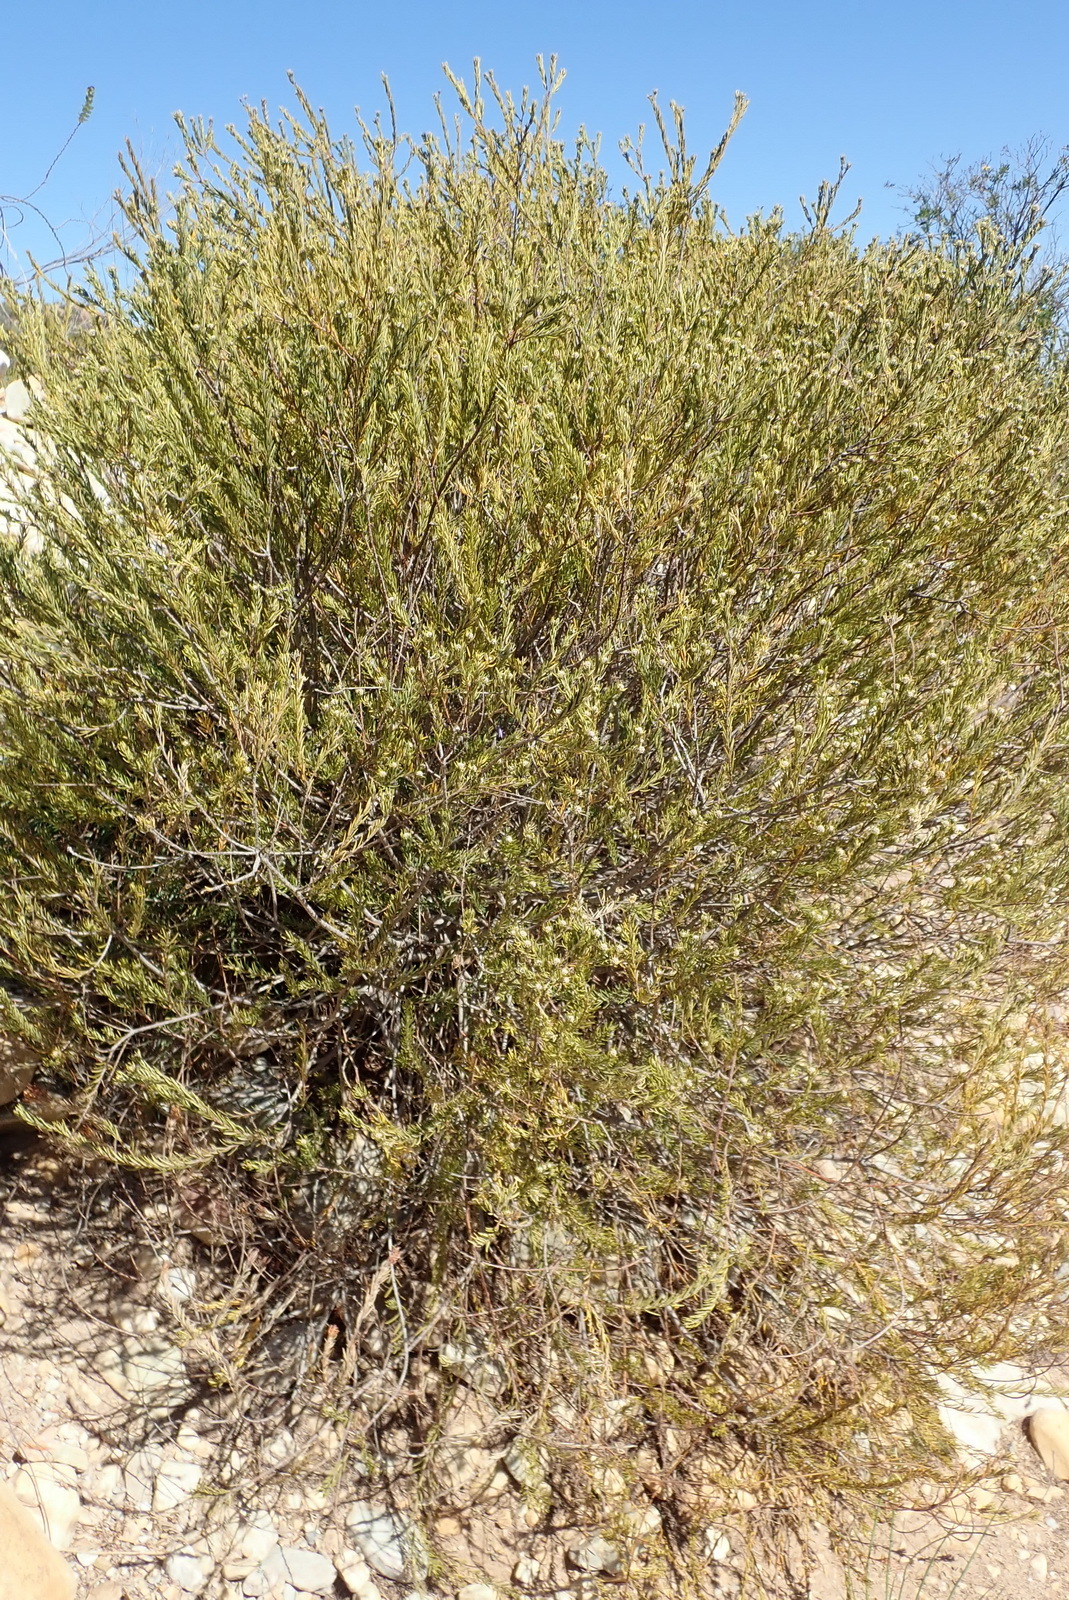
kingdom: Plantae
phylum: Tracheophyta
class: Magnoliopsida
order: Rosales
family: Rhamnaceae
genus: Phylica
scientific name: Phylica wittebergensis
